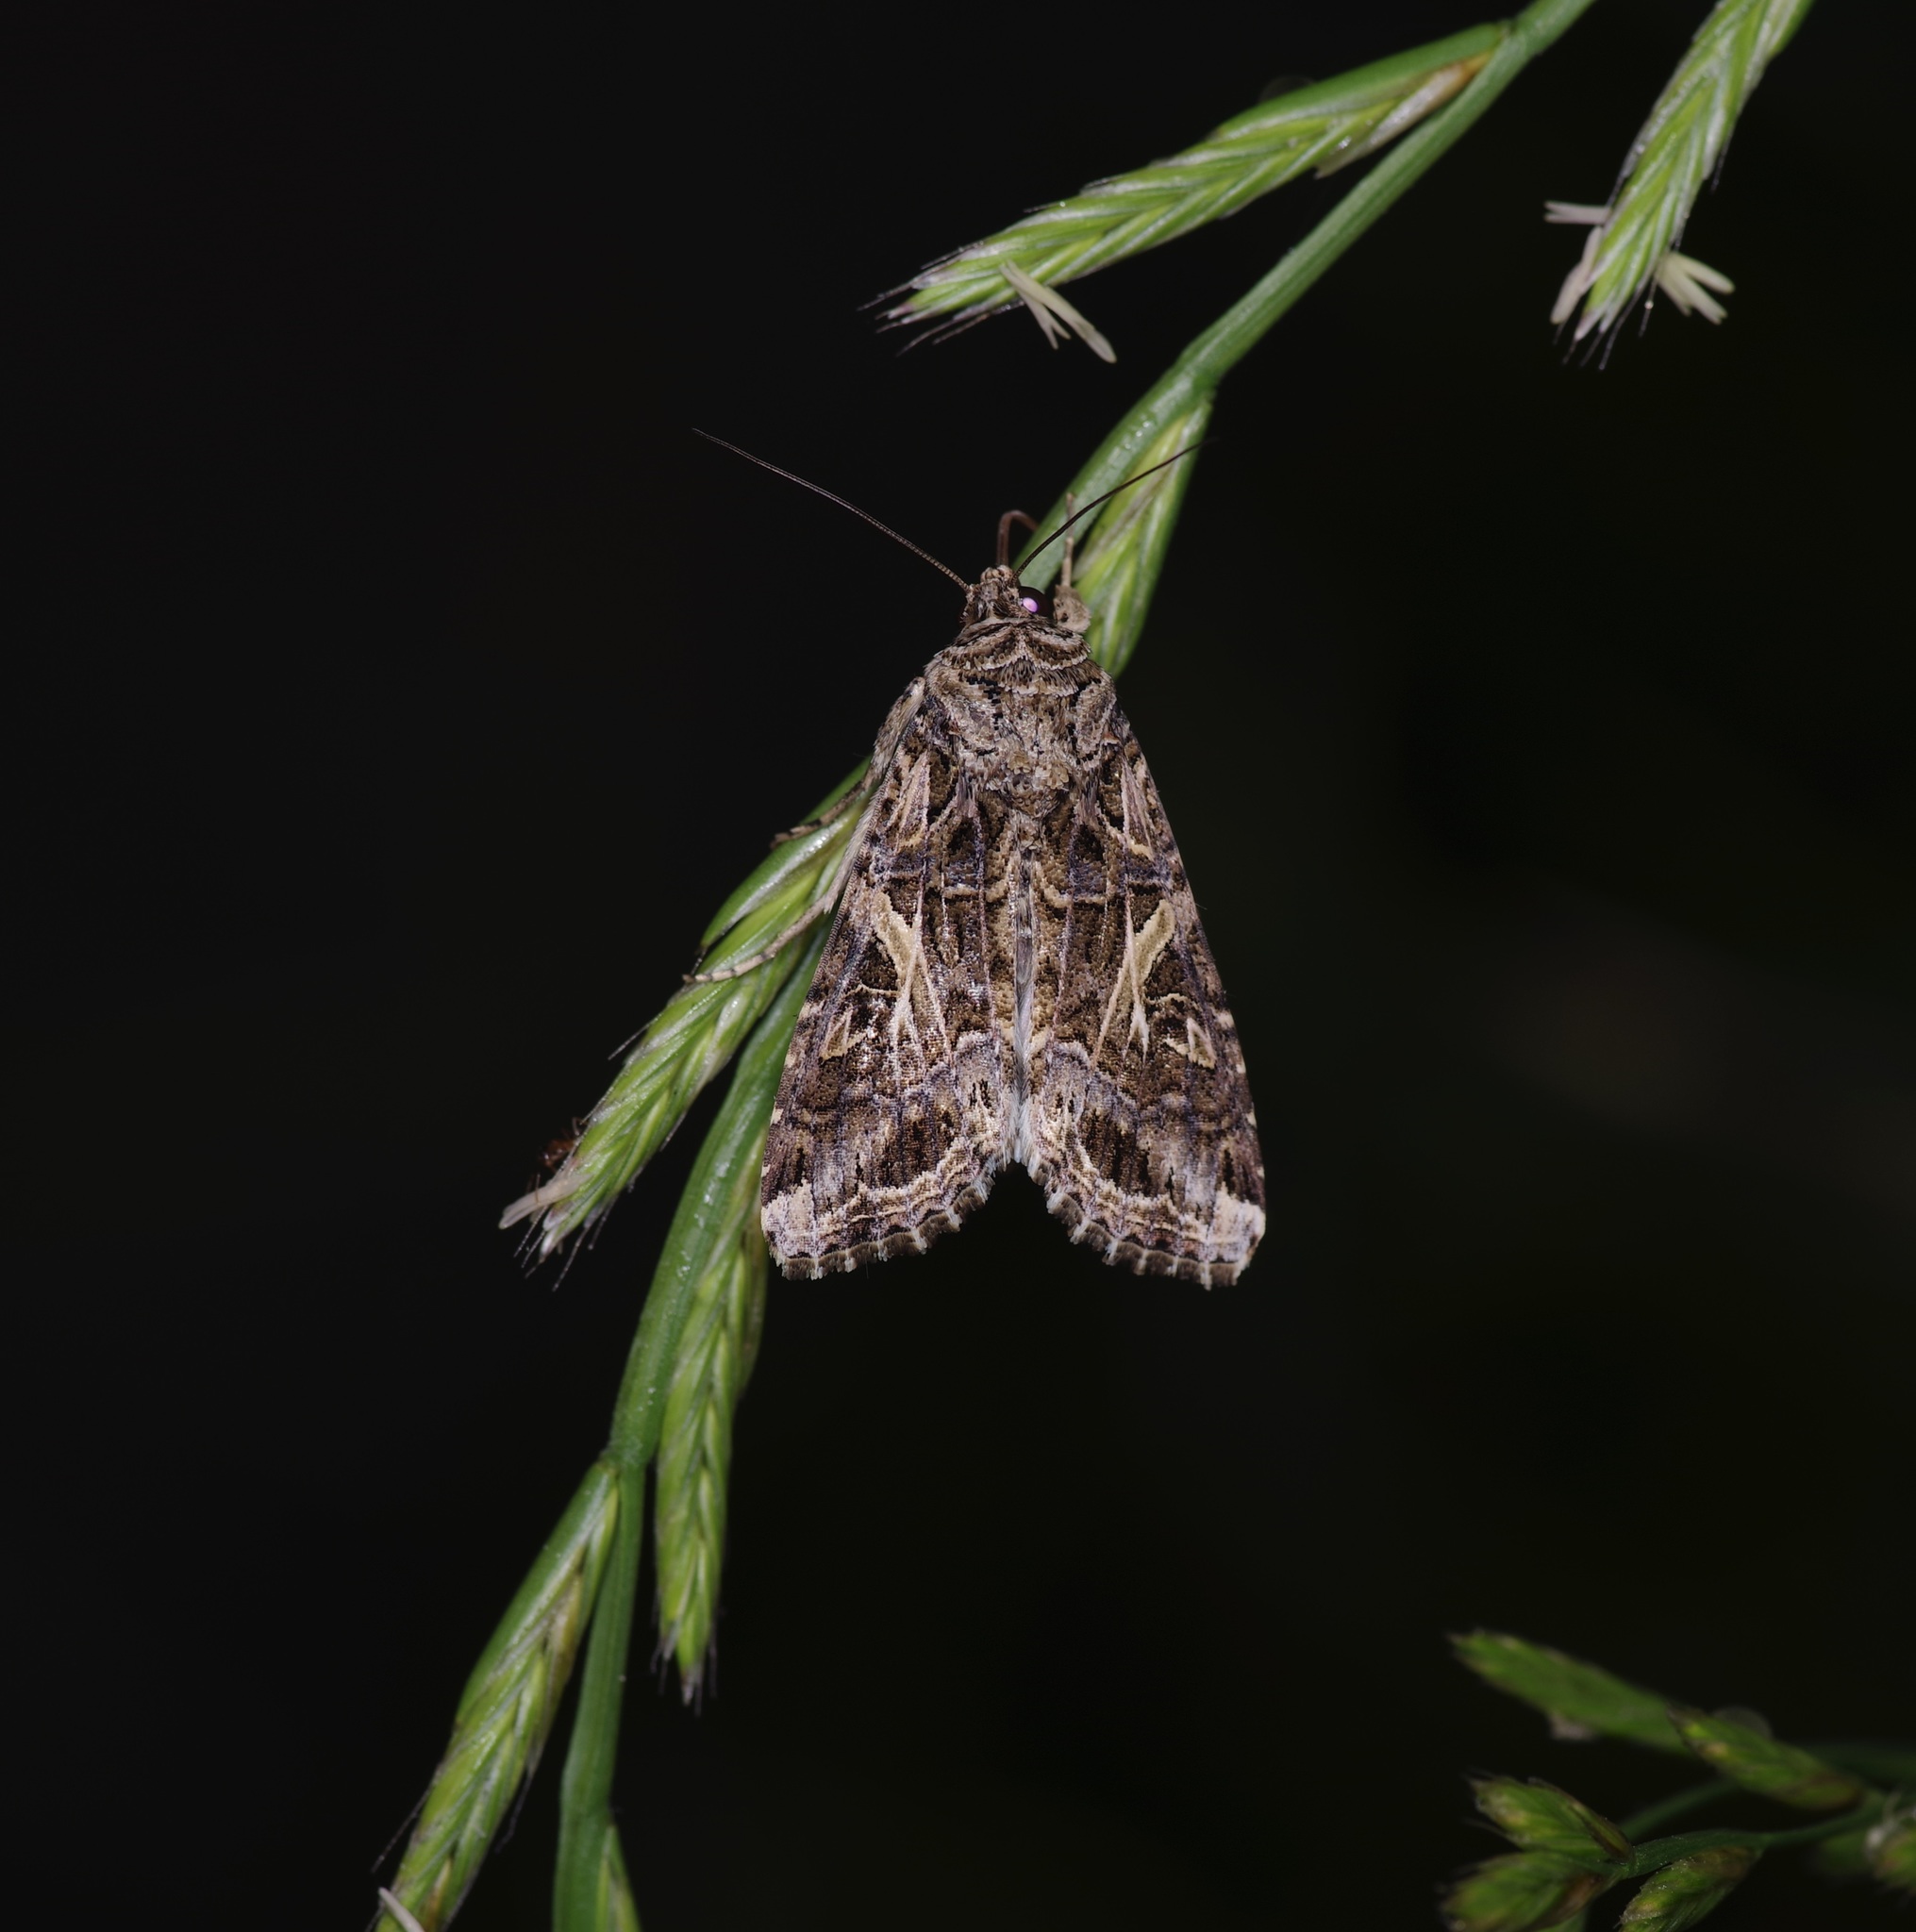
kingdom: Animalia
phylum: Arthropoda
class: Insecta
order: Lepidoptera
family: Noctuidae
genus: Spodoptera
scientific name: Spodoptera ornithogalli
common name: Yellow-striped armyworm
